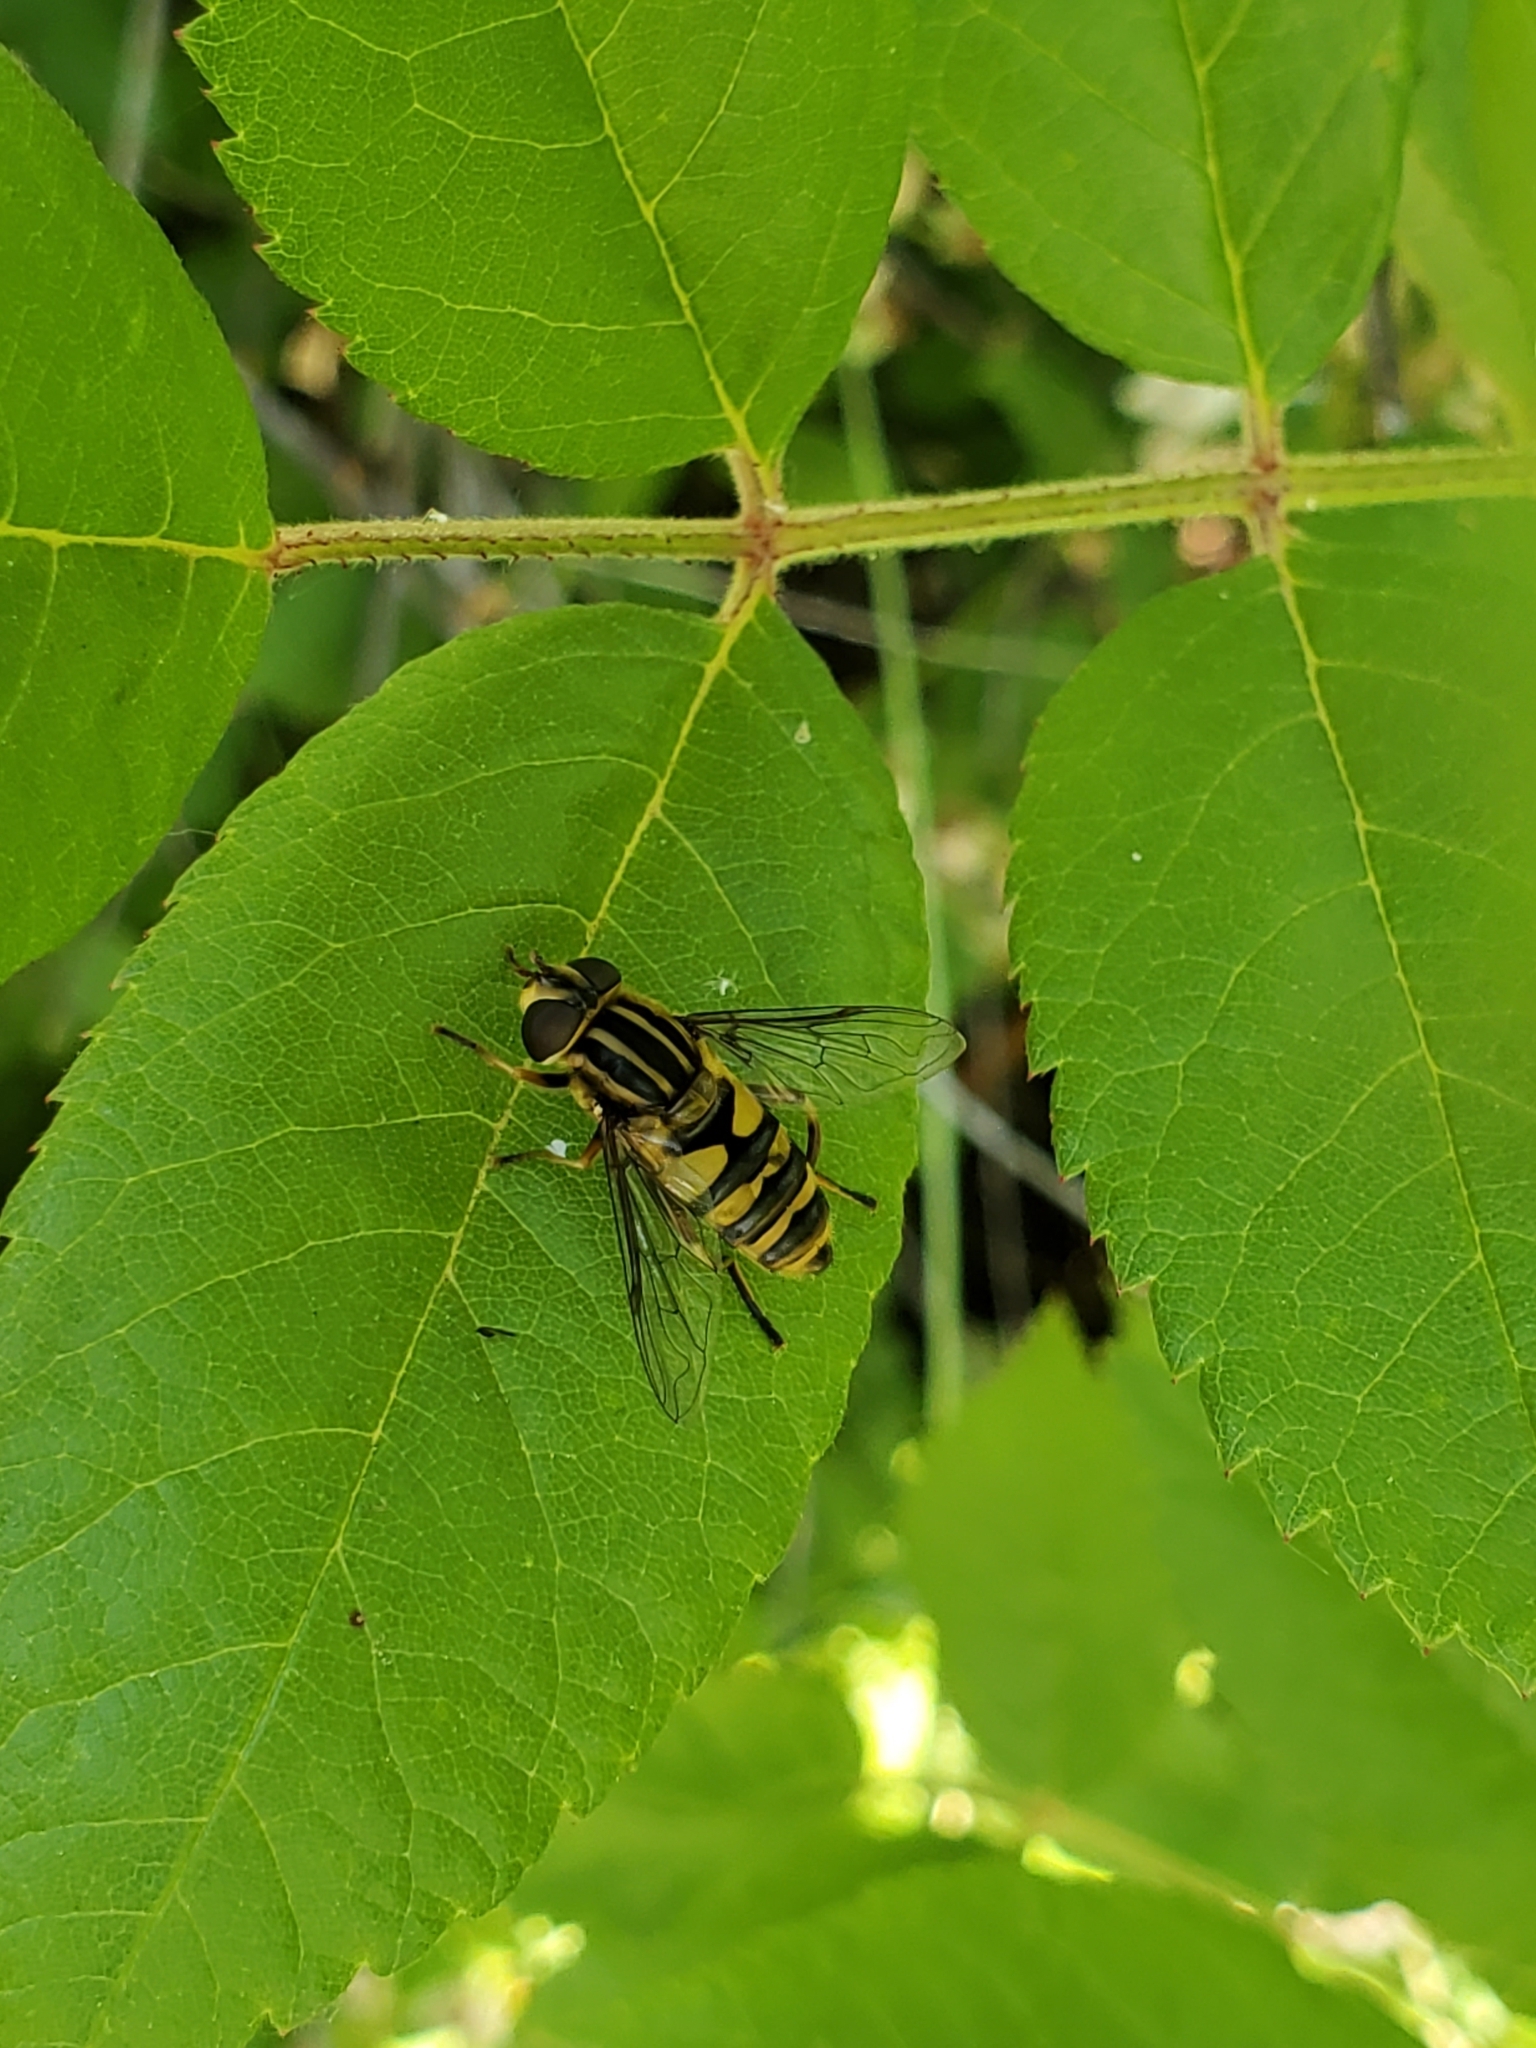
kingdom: Animalia
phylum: Arthropoda
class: Insecta
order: Diptera
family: Syrphidae
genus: Helophilus
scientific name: Helophilus fasciatus
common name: Narrow-headed marsh fly
